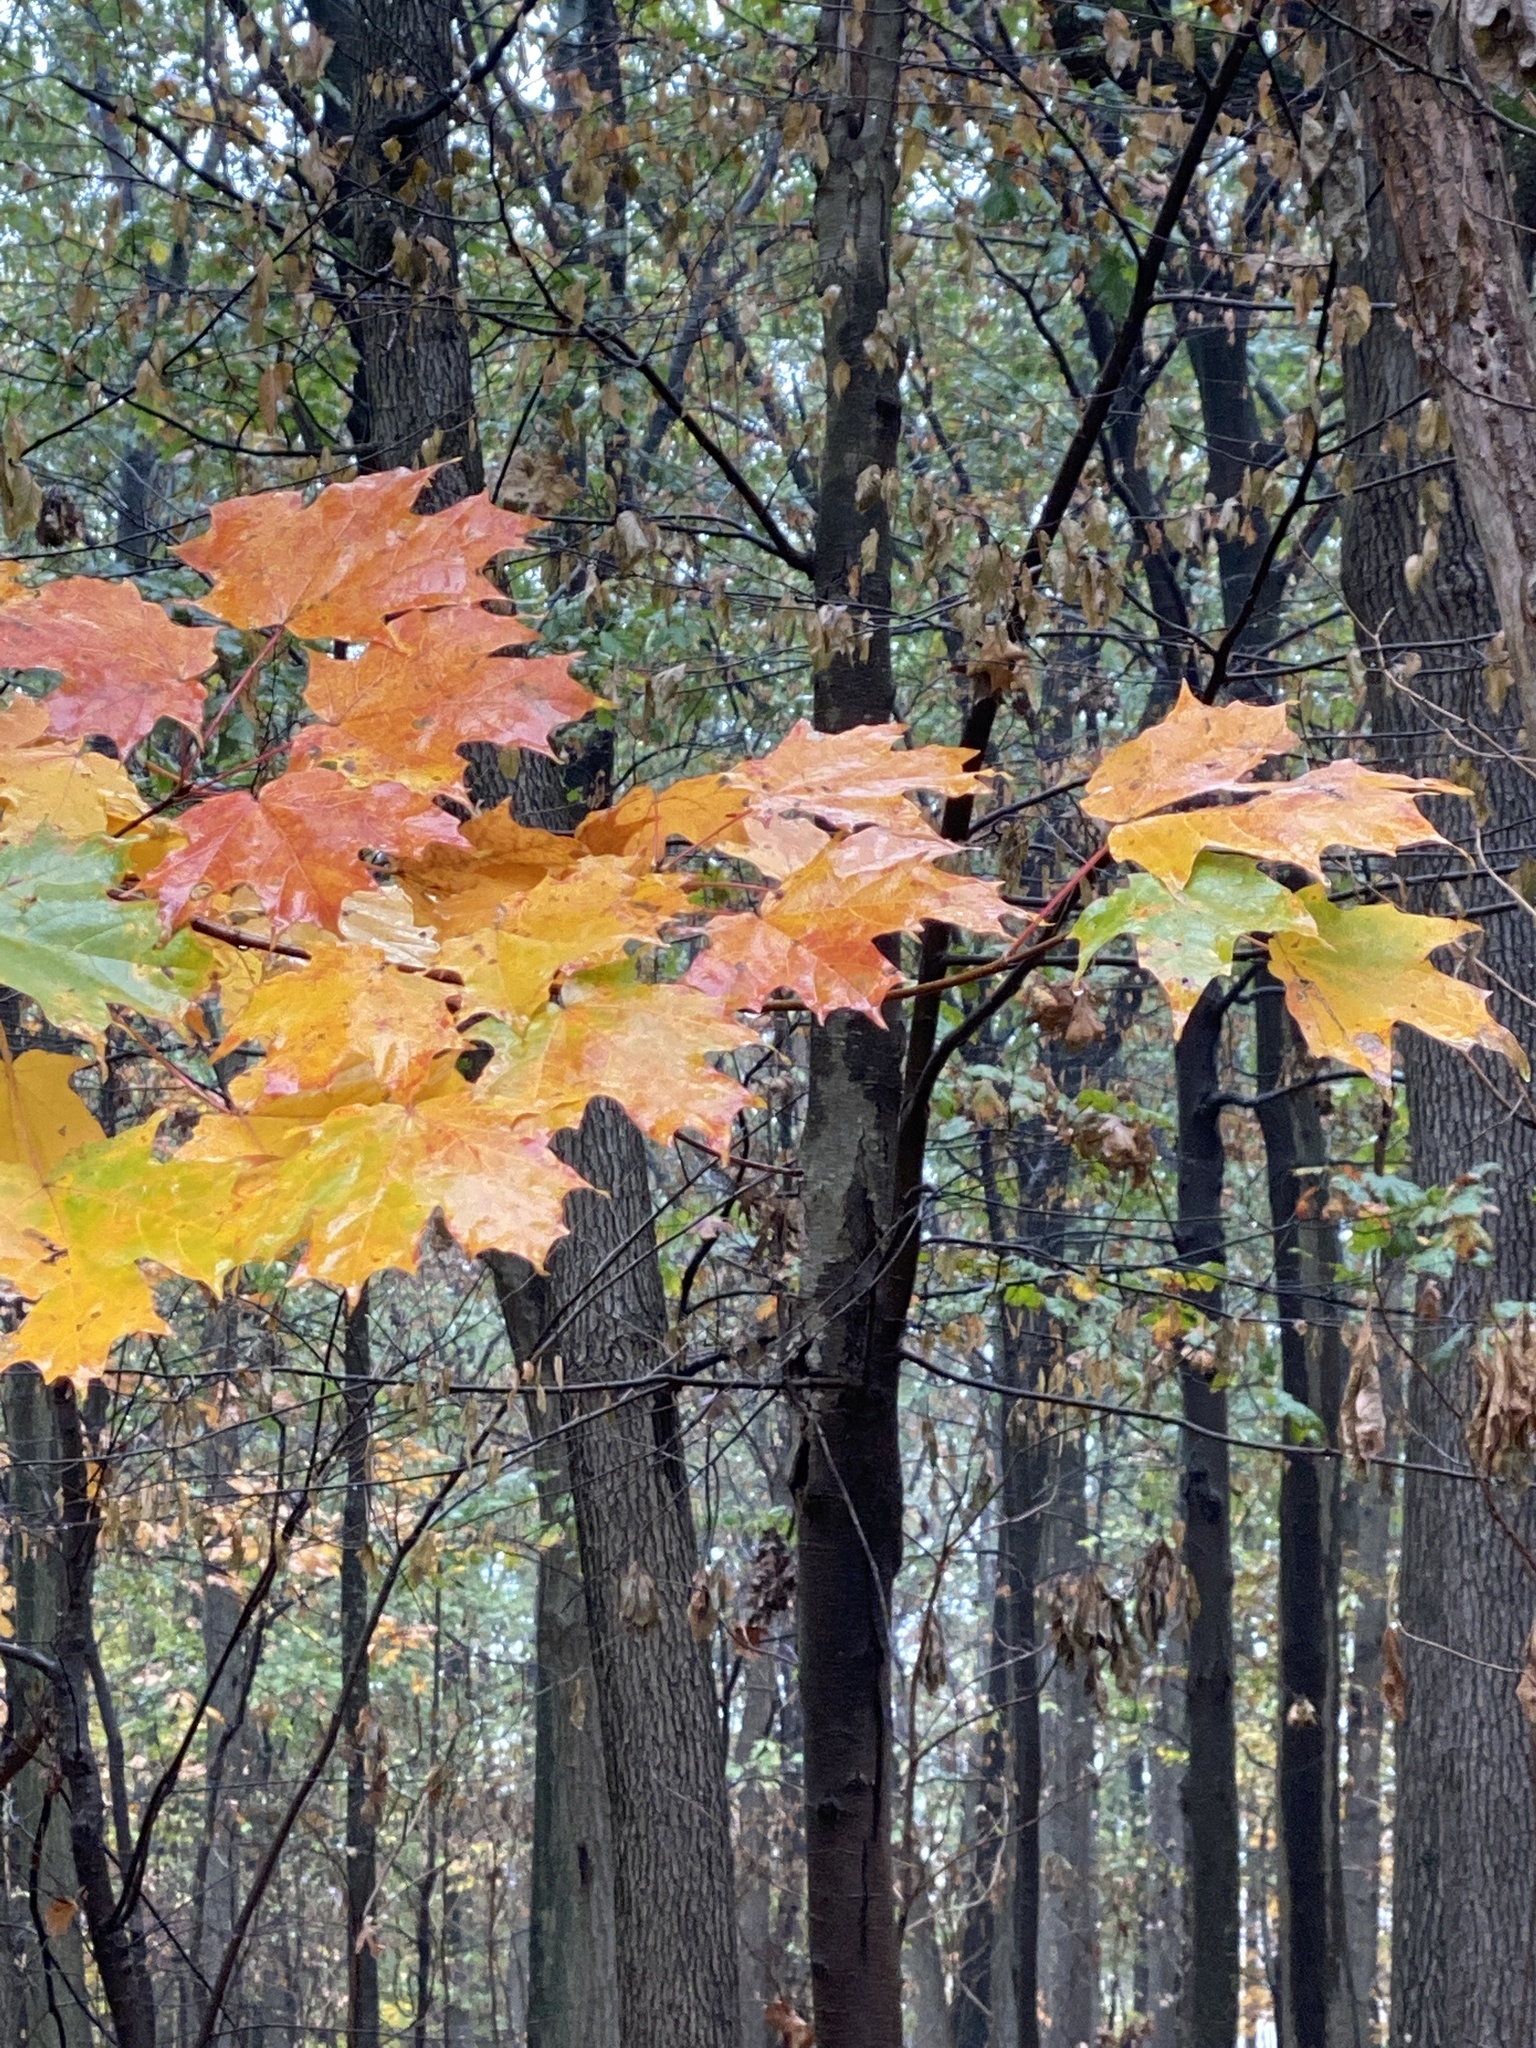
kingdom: Plantae
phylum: Tracheophyta
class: Magnoliopsida
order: Sapindales
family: Sapindaceae
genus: Acer
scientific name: Acer saccharum
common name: Sugar maple
